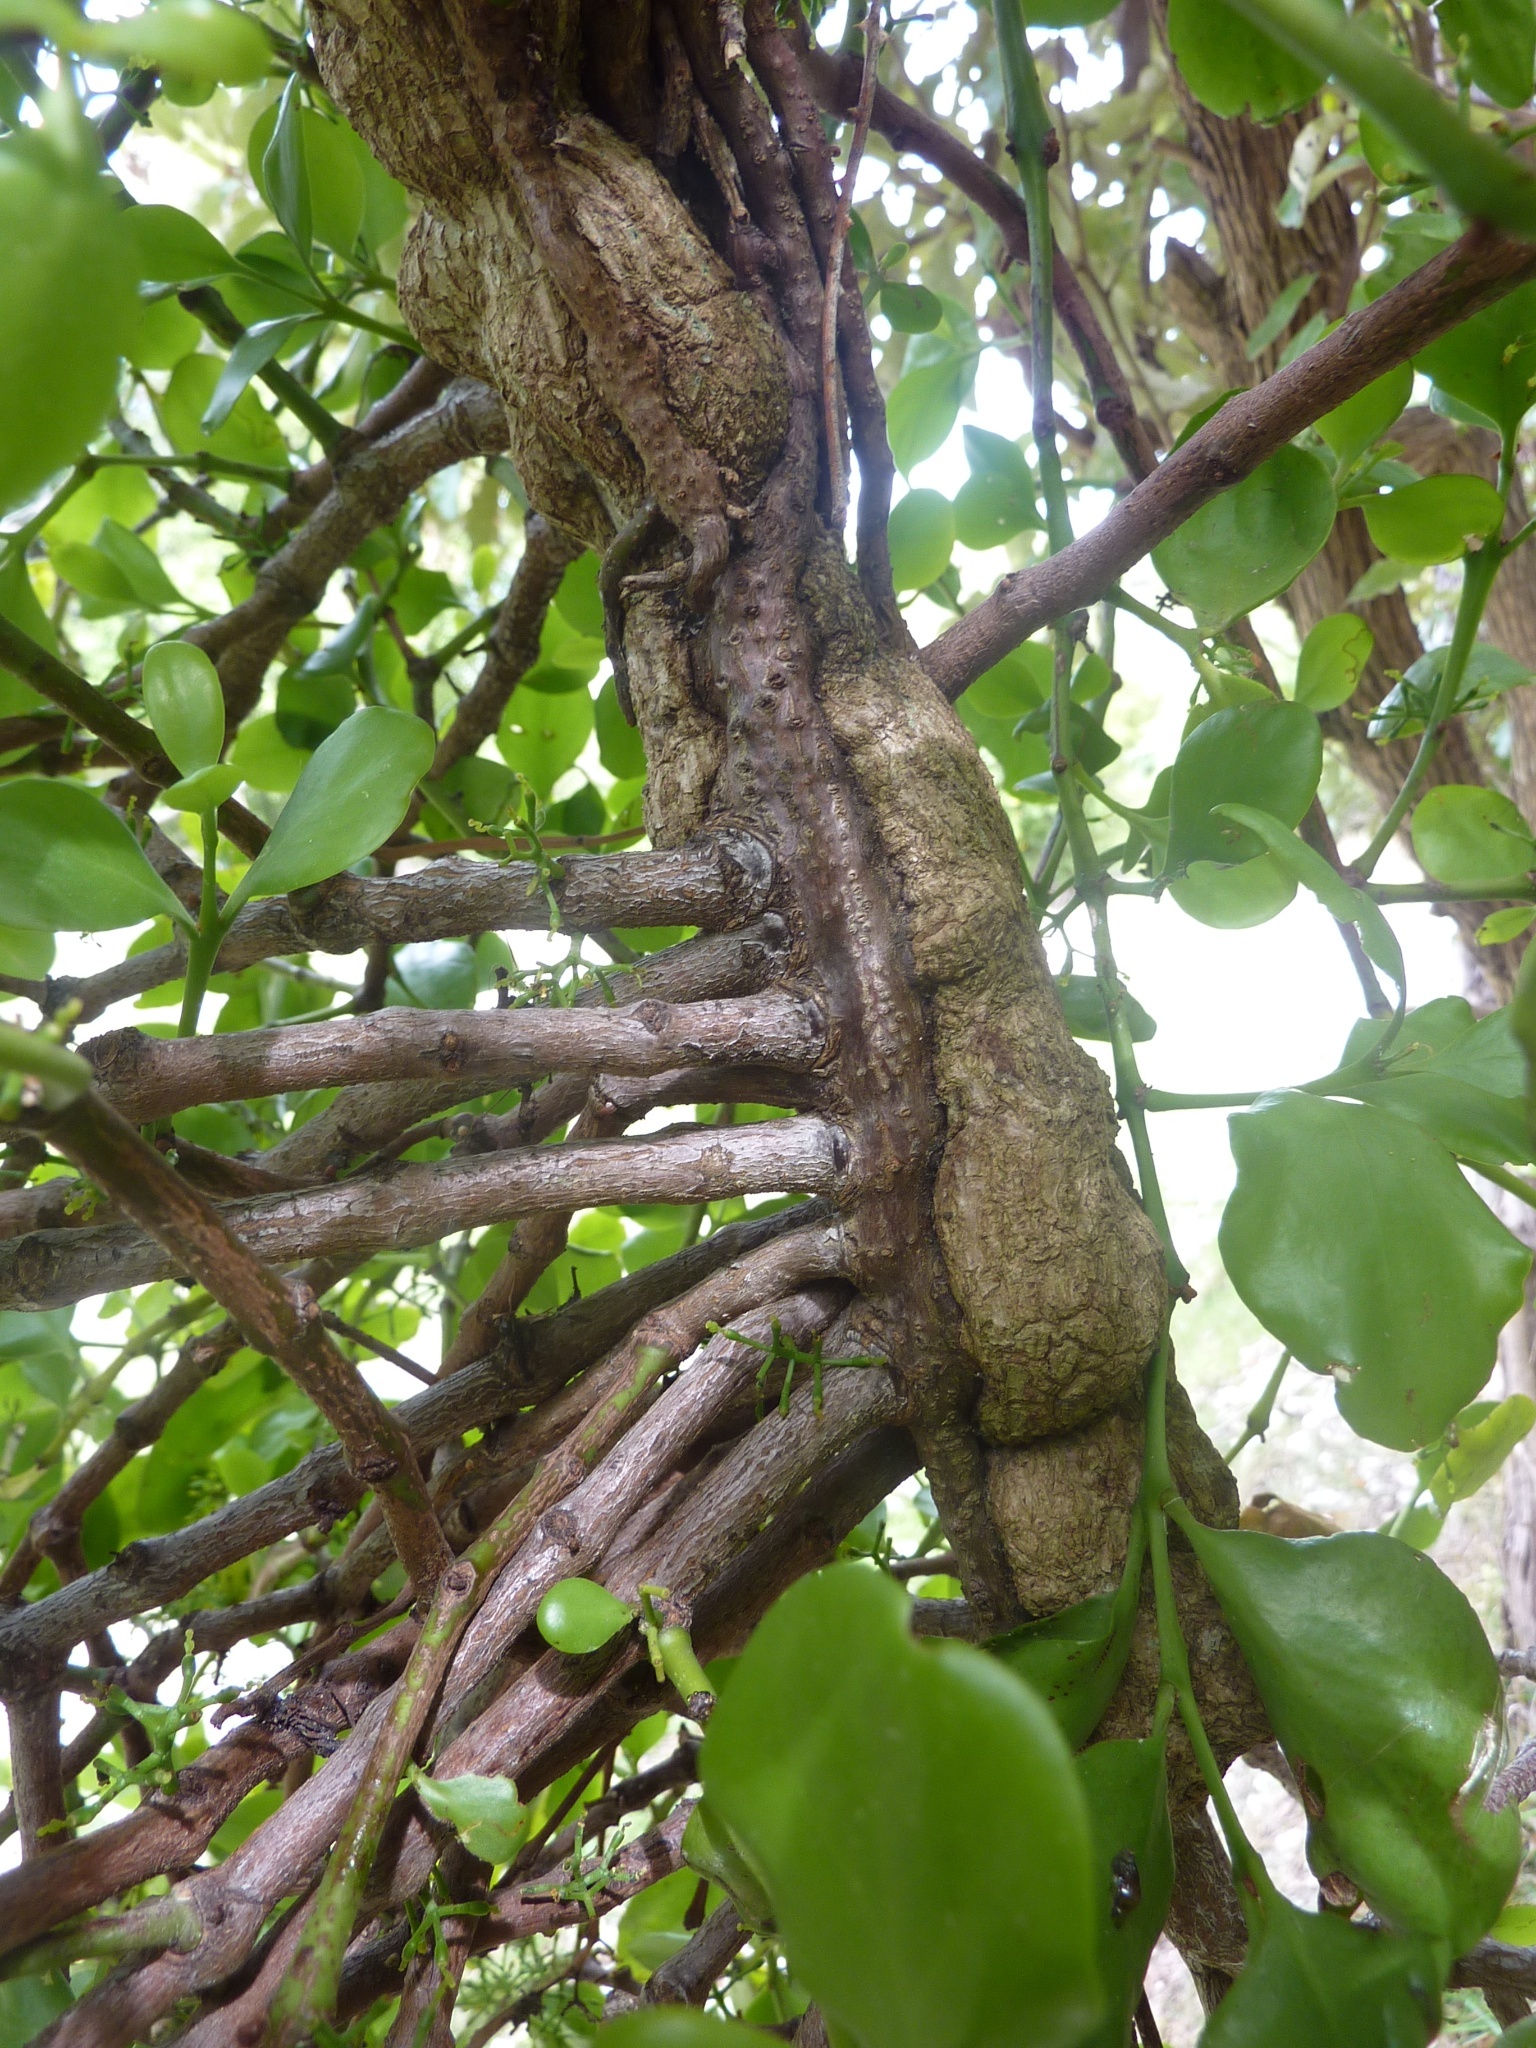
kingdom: Plantae
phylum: Tracheophyta
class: Magnoliopsida
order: Santalales
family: Loranthaceae
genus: Ileostylus
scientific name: Ileostylus micranthus
